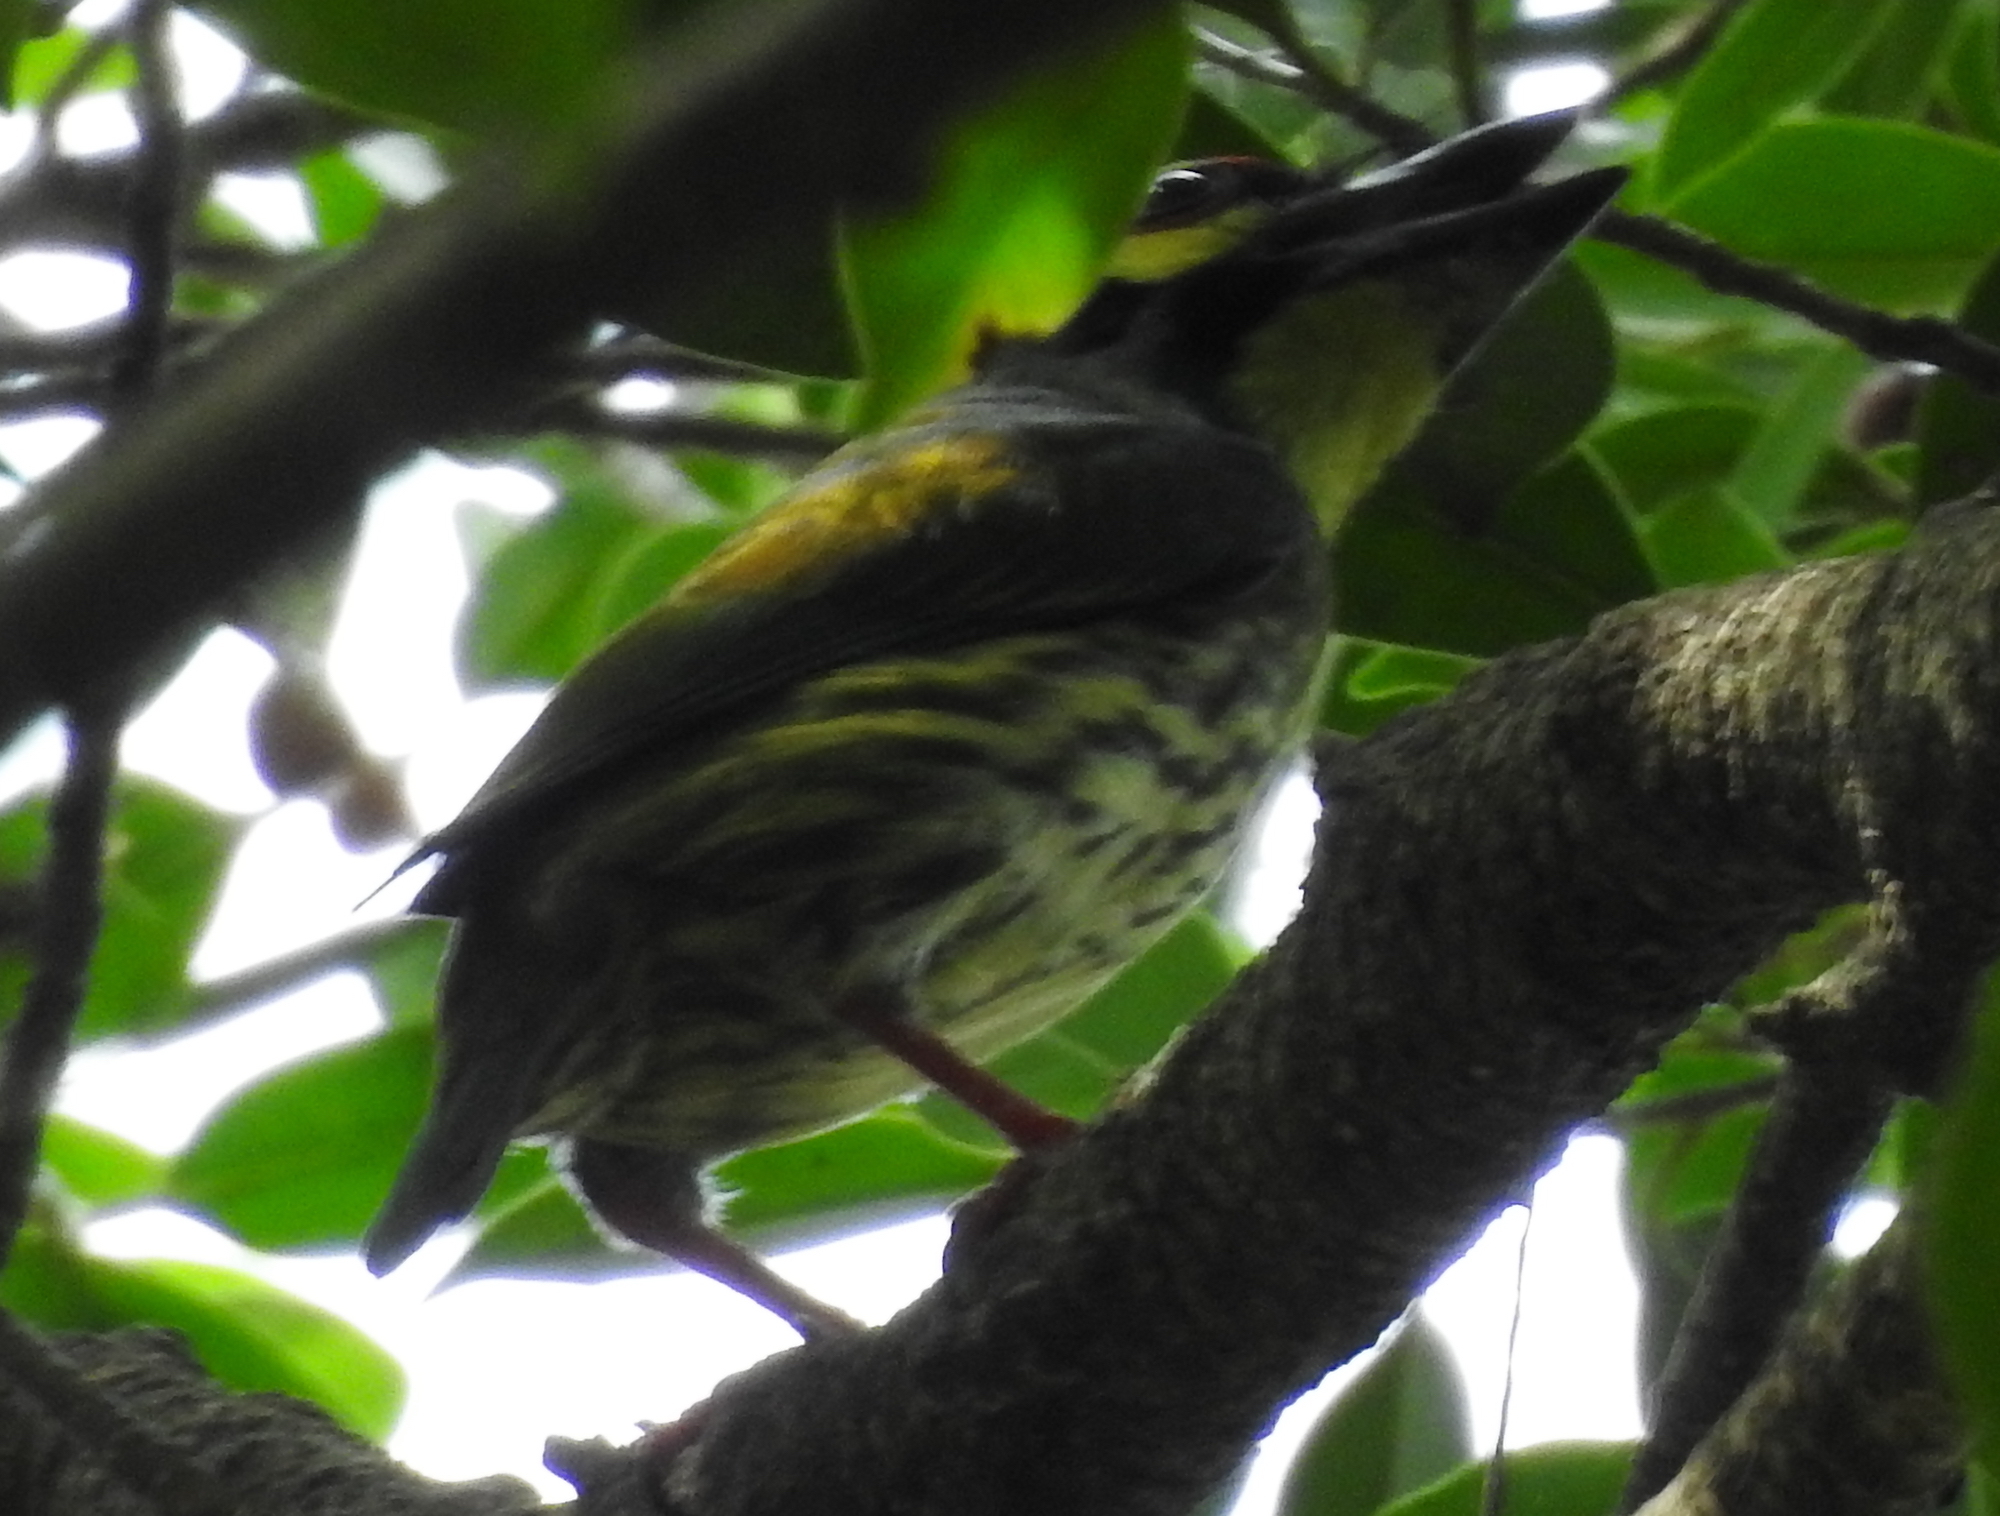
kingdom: Animalia
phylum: Chordata
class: Aves
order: Piciformes
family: Megalaimidae
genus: Psilopogon
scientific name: Psilopogon haemacephalus
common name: Coppersmith barbet
